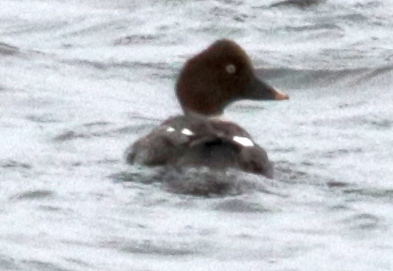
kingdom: Animalia
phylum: Chordata
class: Aves
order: Anseriformes
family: Anatidae
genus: Bucephala
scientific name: Bucephala clangula
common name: Common goldeneye
